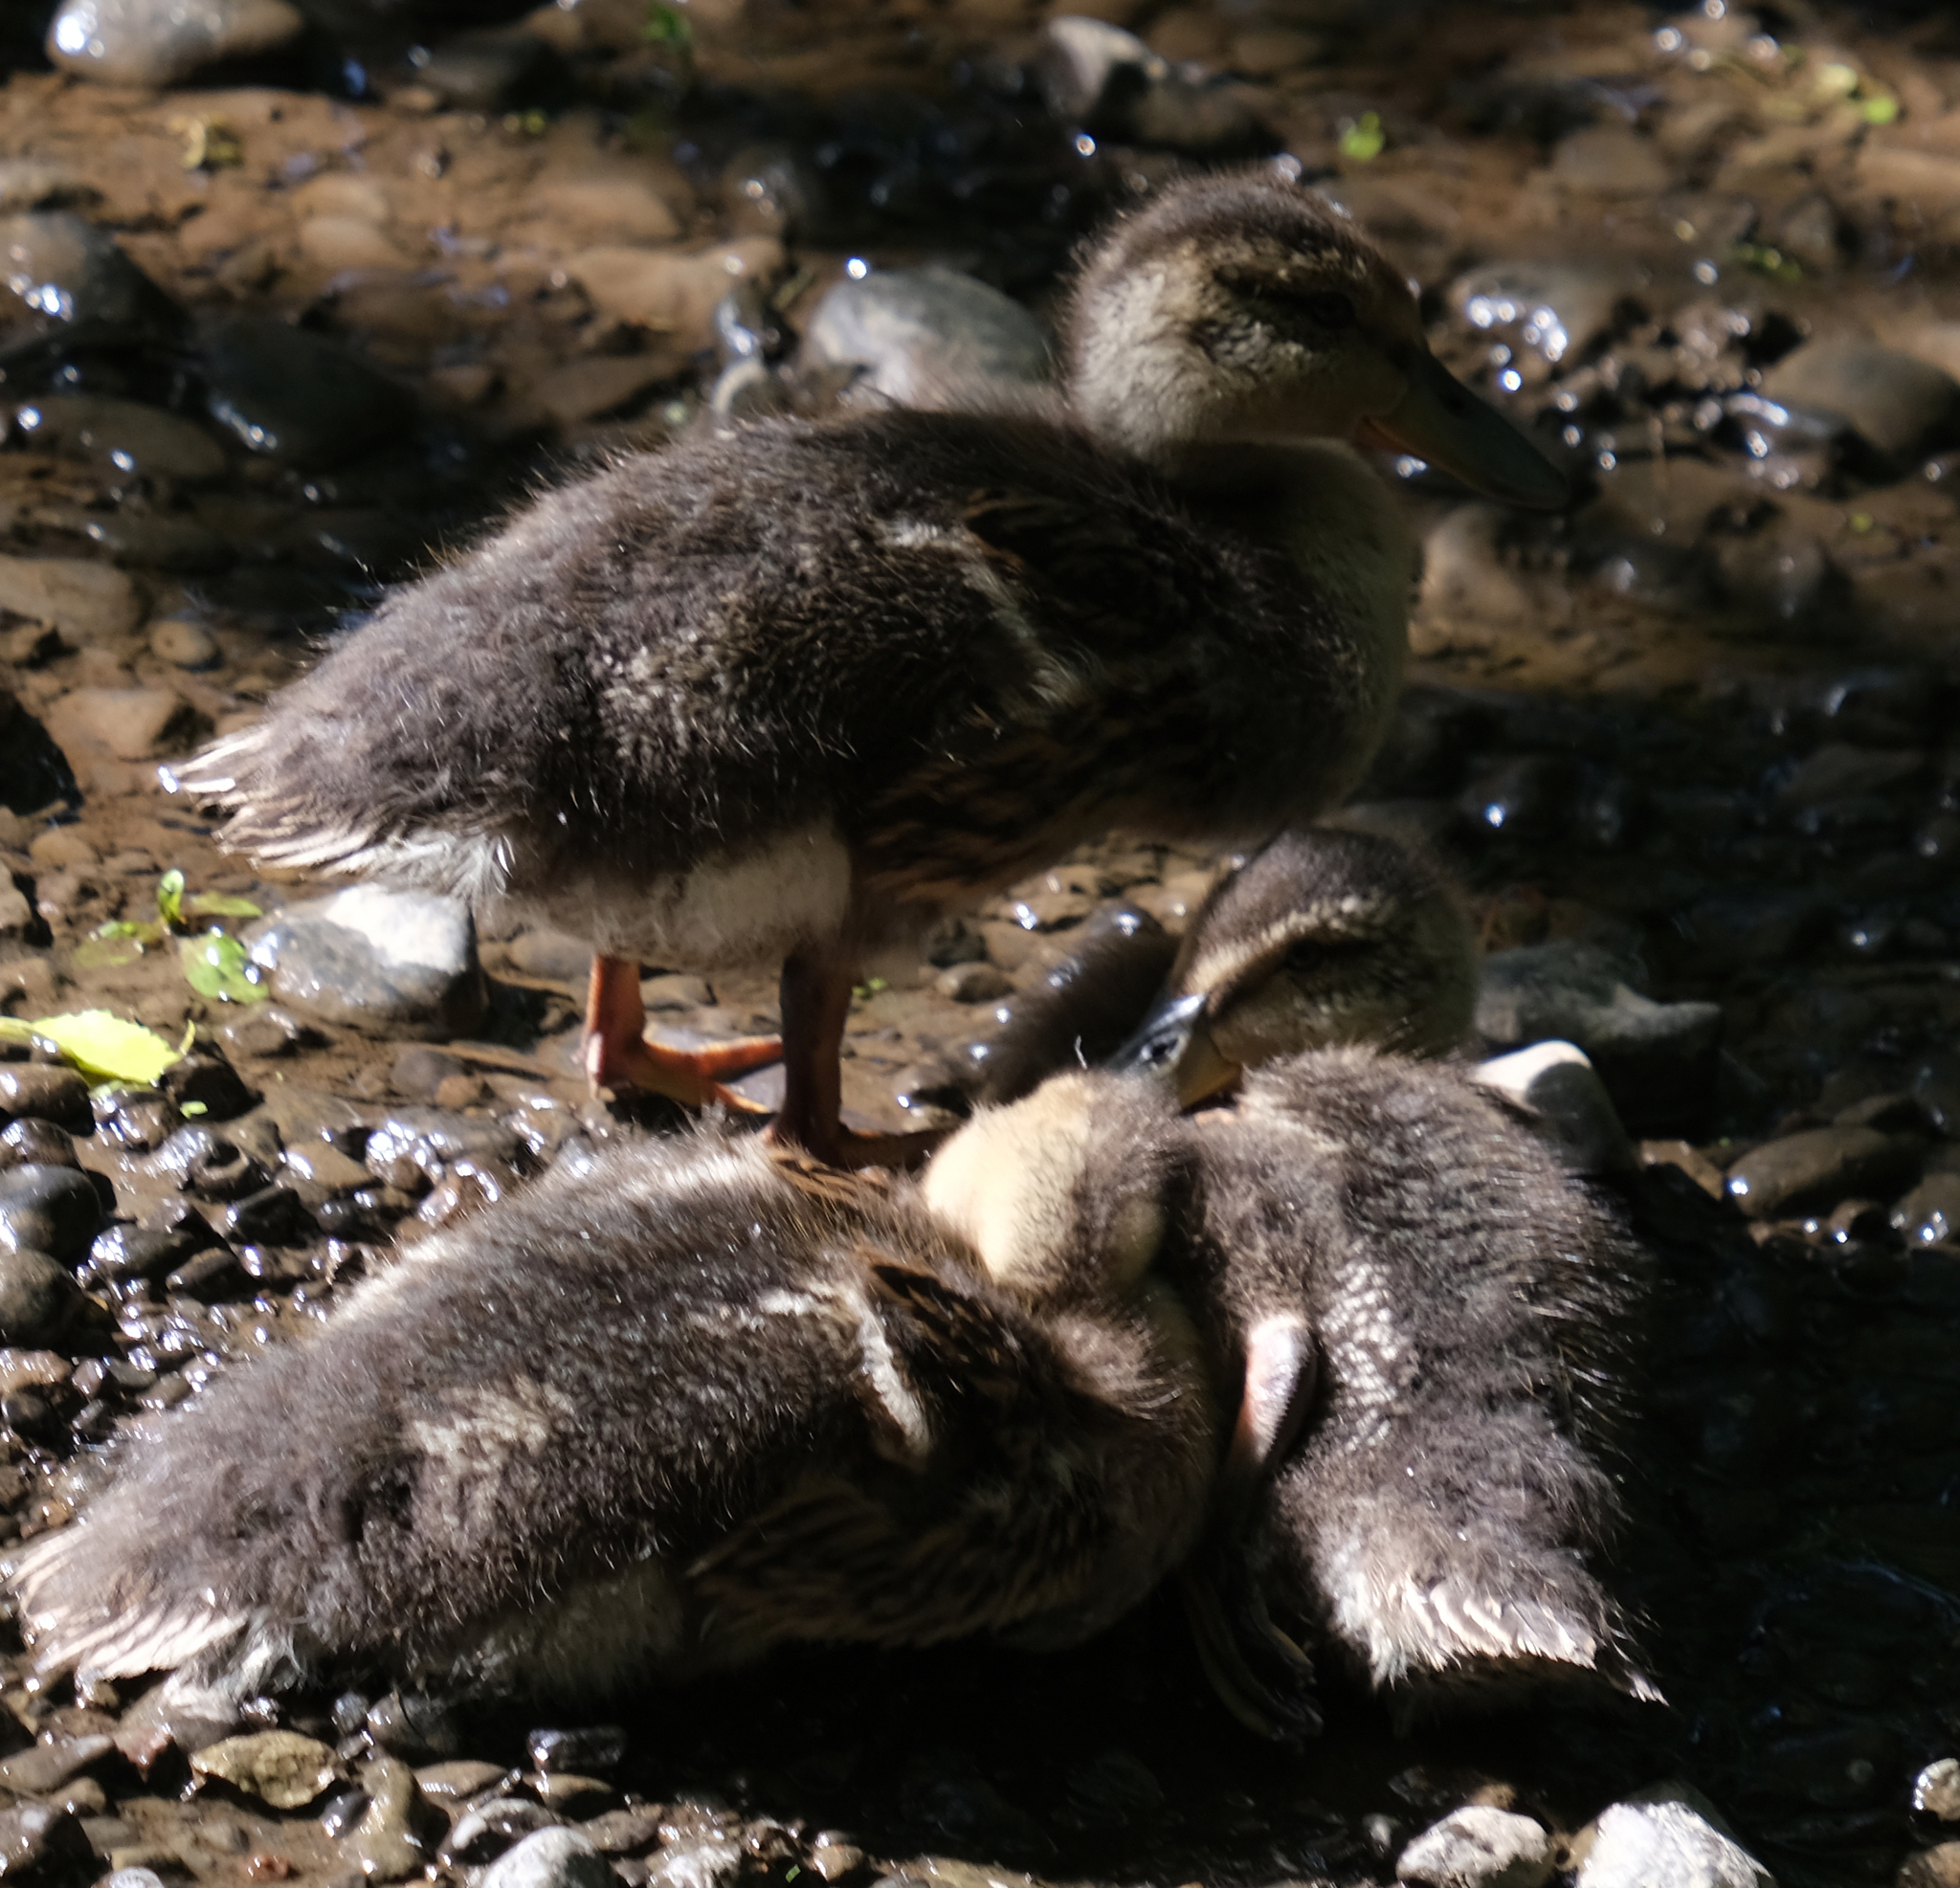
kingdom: Animalia
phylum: Chordata
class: Aves
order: Anseriformes
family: Anatidae
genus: Anas
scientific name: Anas platyrhynchos
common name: Mallard
